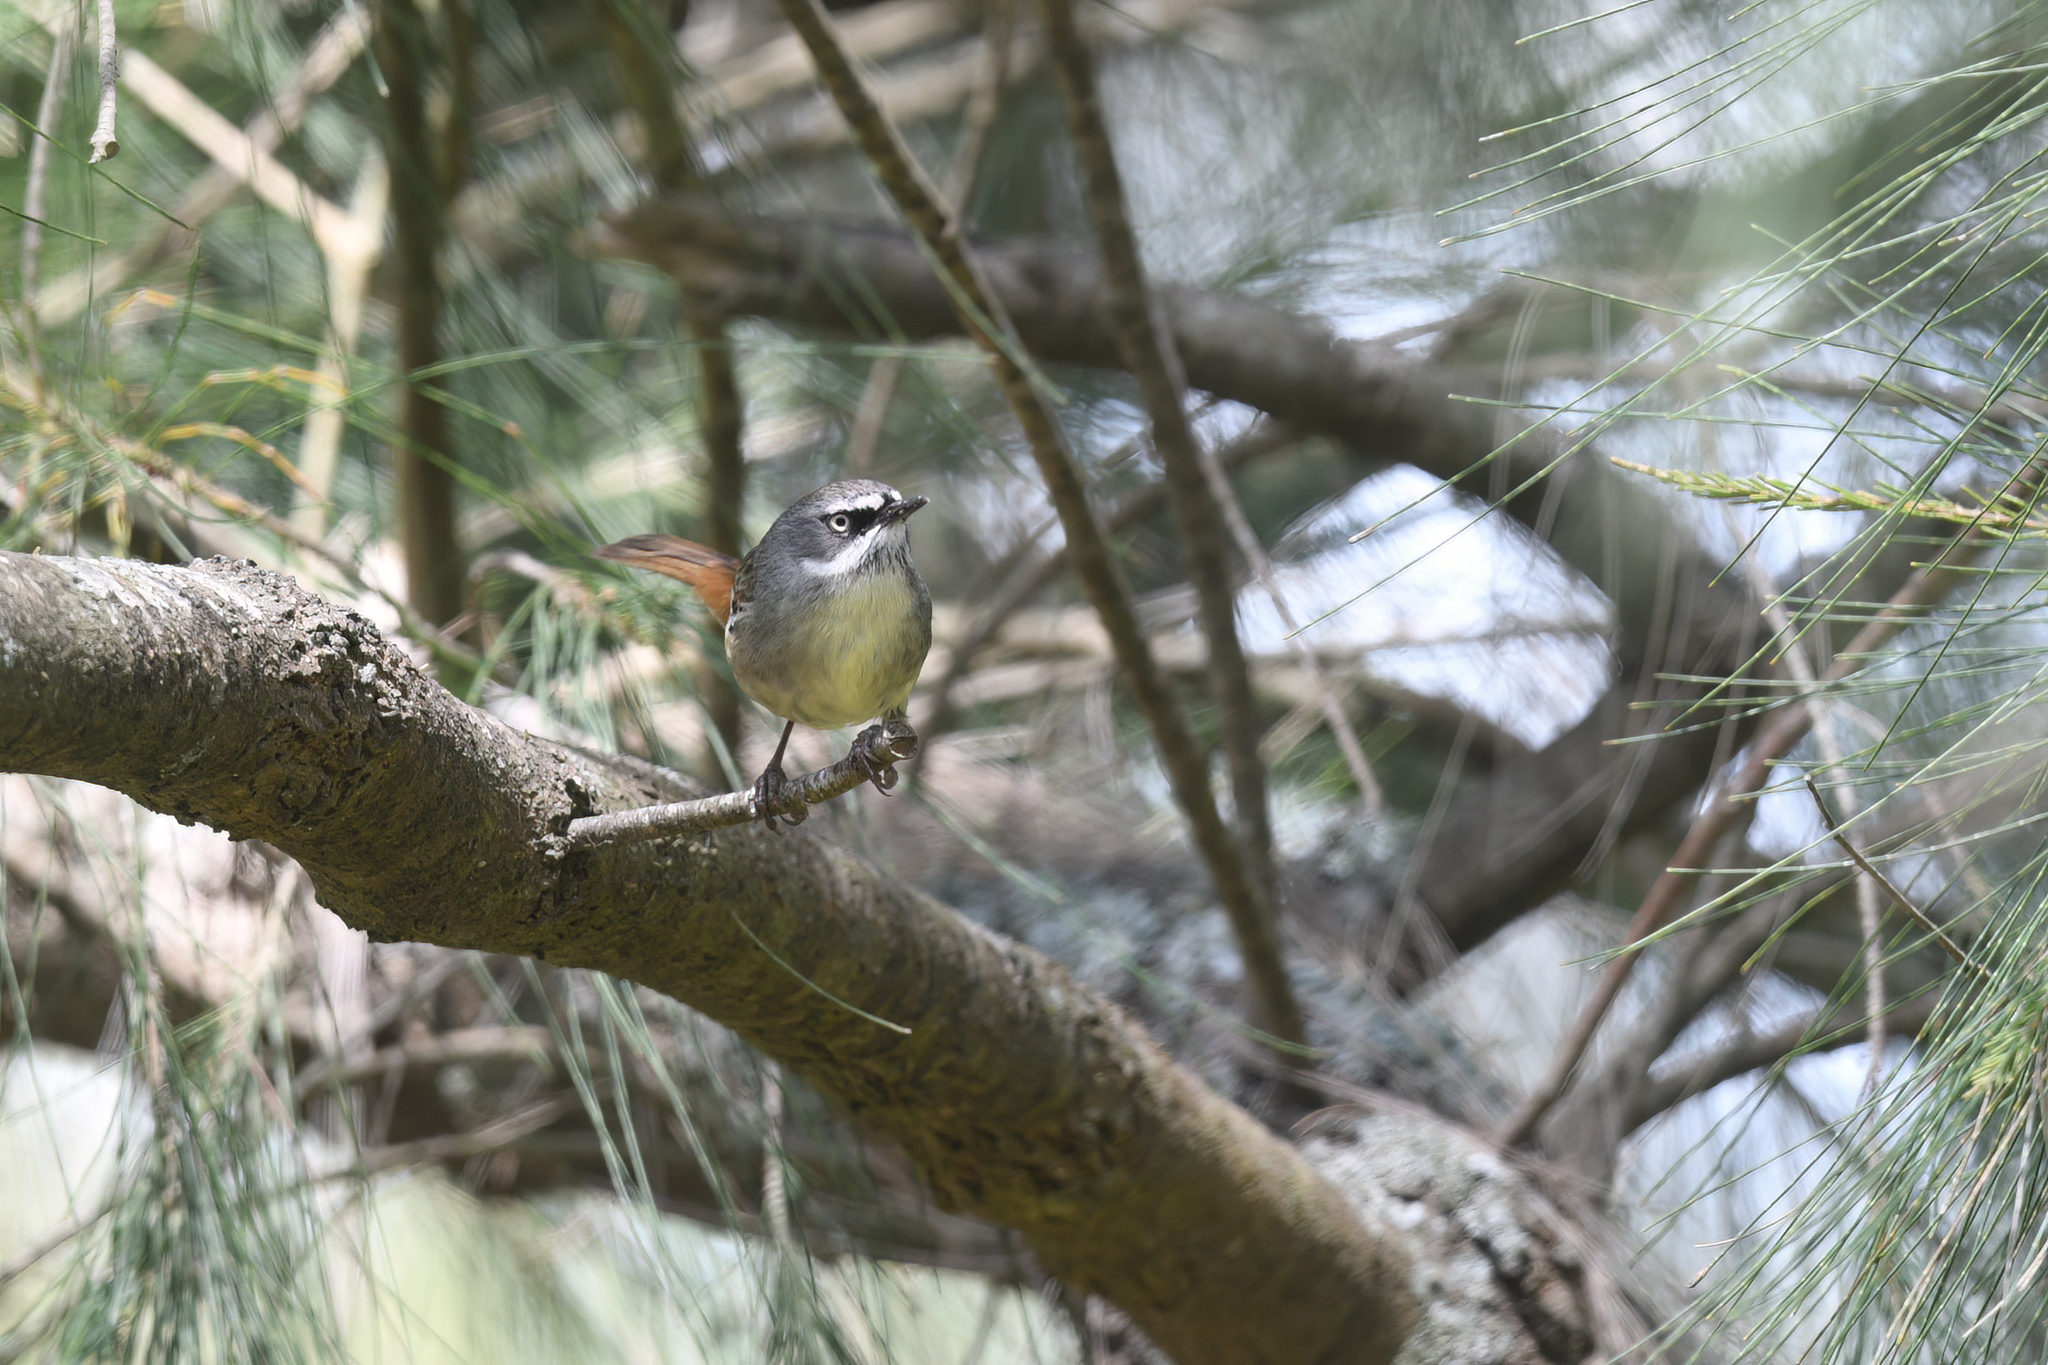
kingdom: Animalia
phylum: Chordata
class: Aves
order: Passeriformes
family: Acanthizidae
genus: Sericornis
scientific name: Sericornis frontalis
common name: White-browed scrubwren
